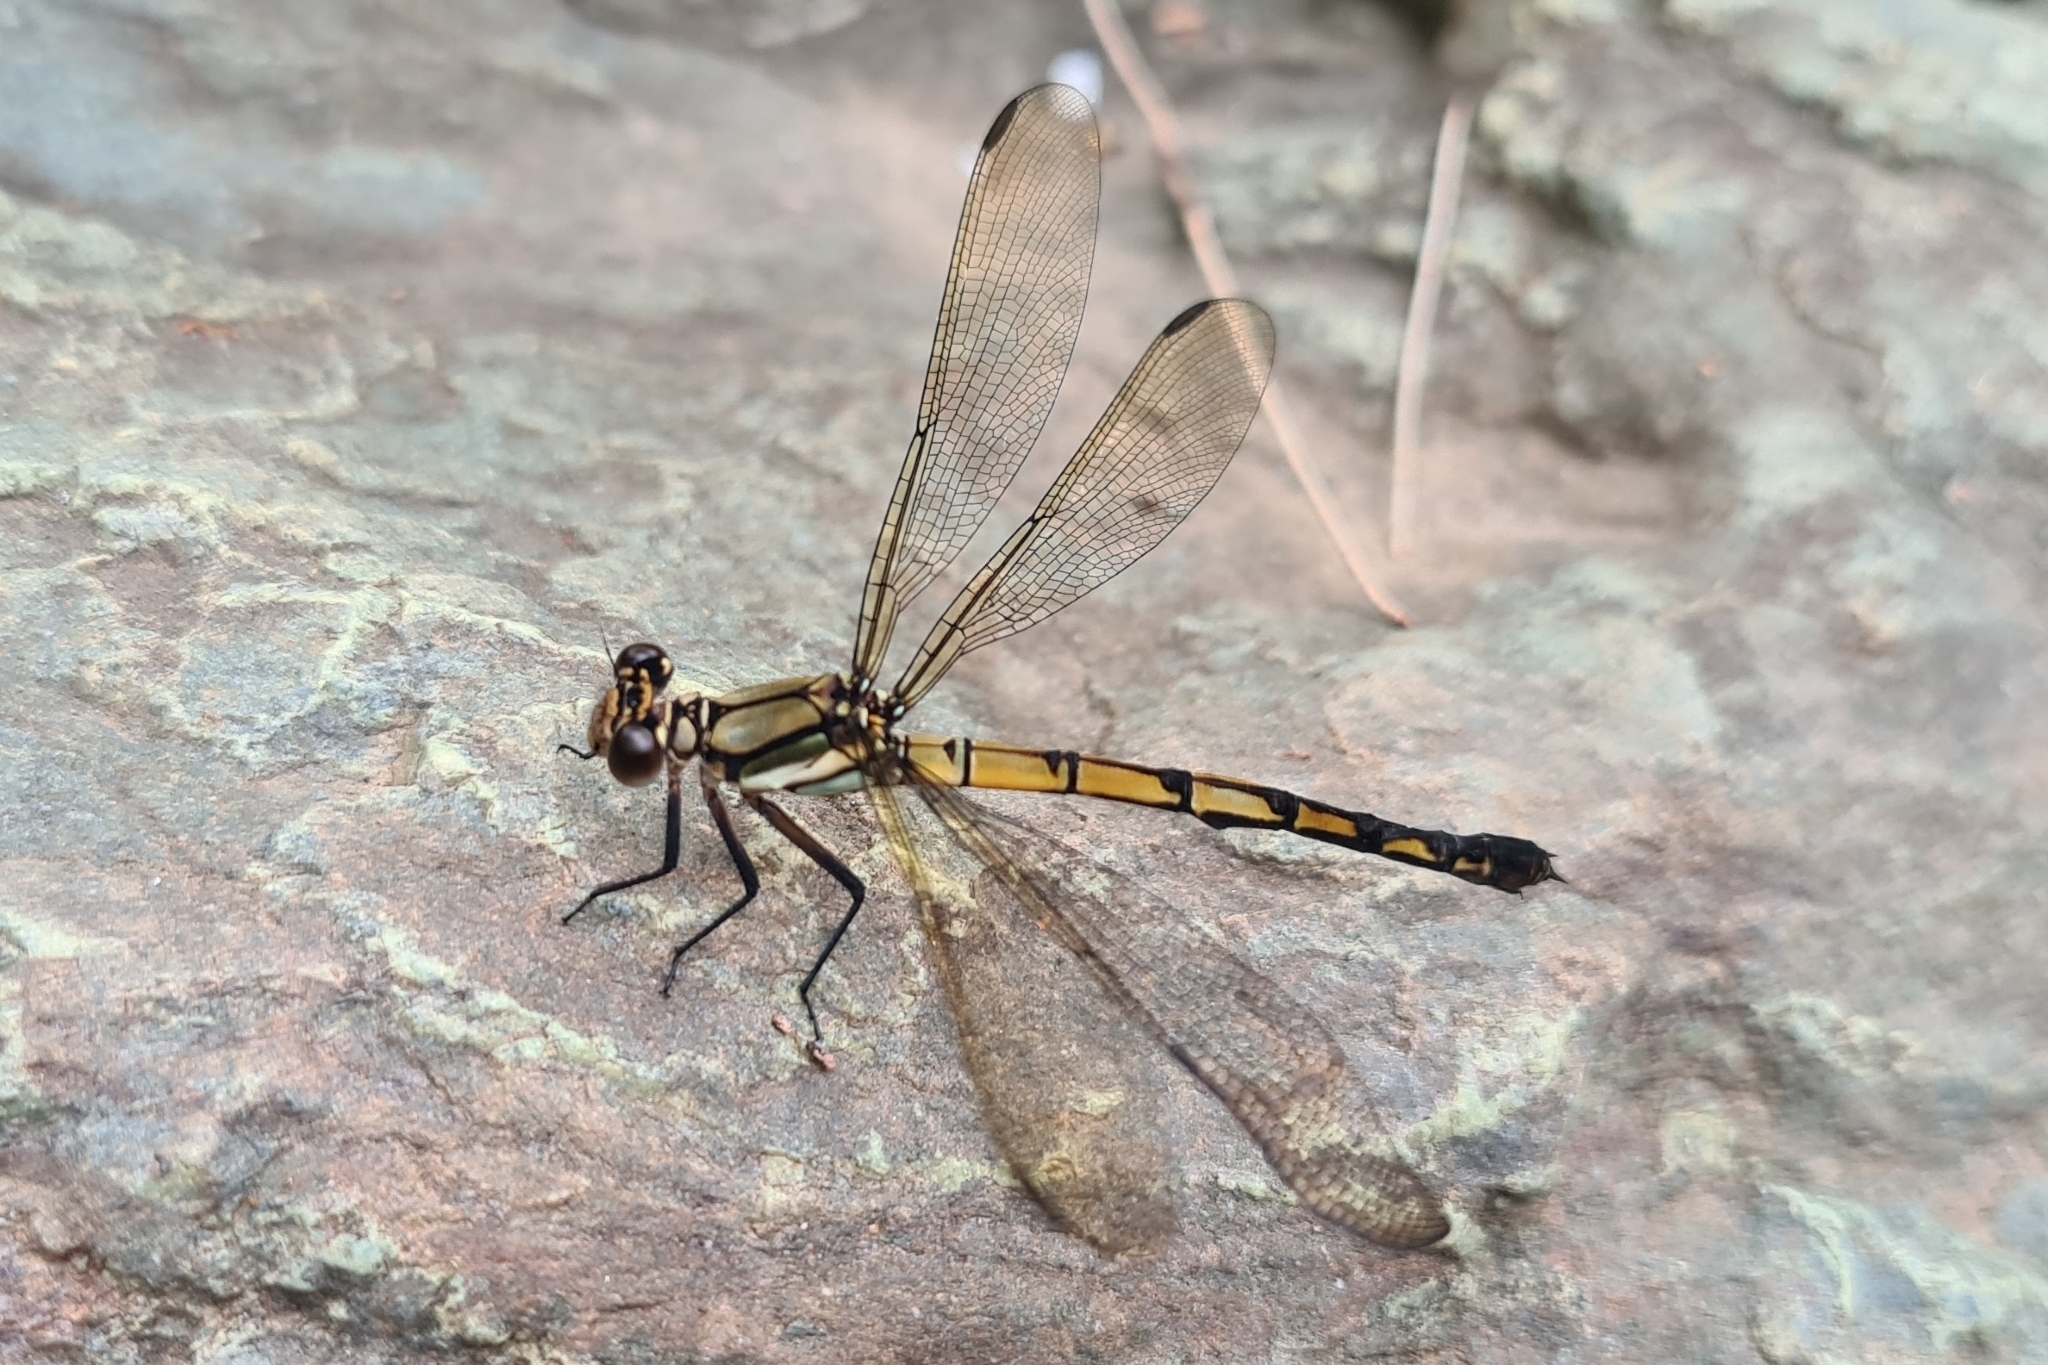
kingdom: Animalia
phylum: Arthropoda
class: Insecta
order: Odonata
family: Lestoideidae
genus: Diphlebia
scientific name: Diphlebia coerulescens
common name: Sapphire rockmaster
